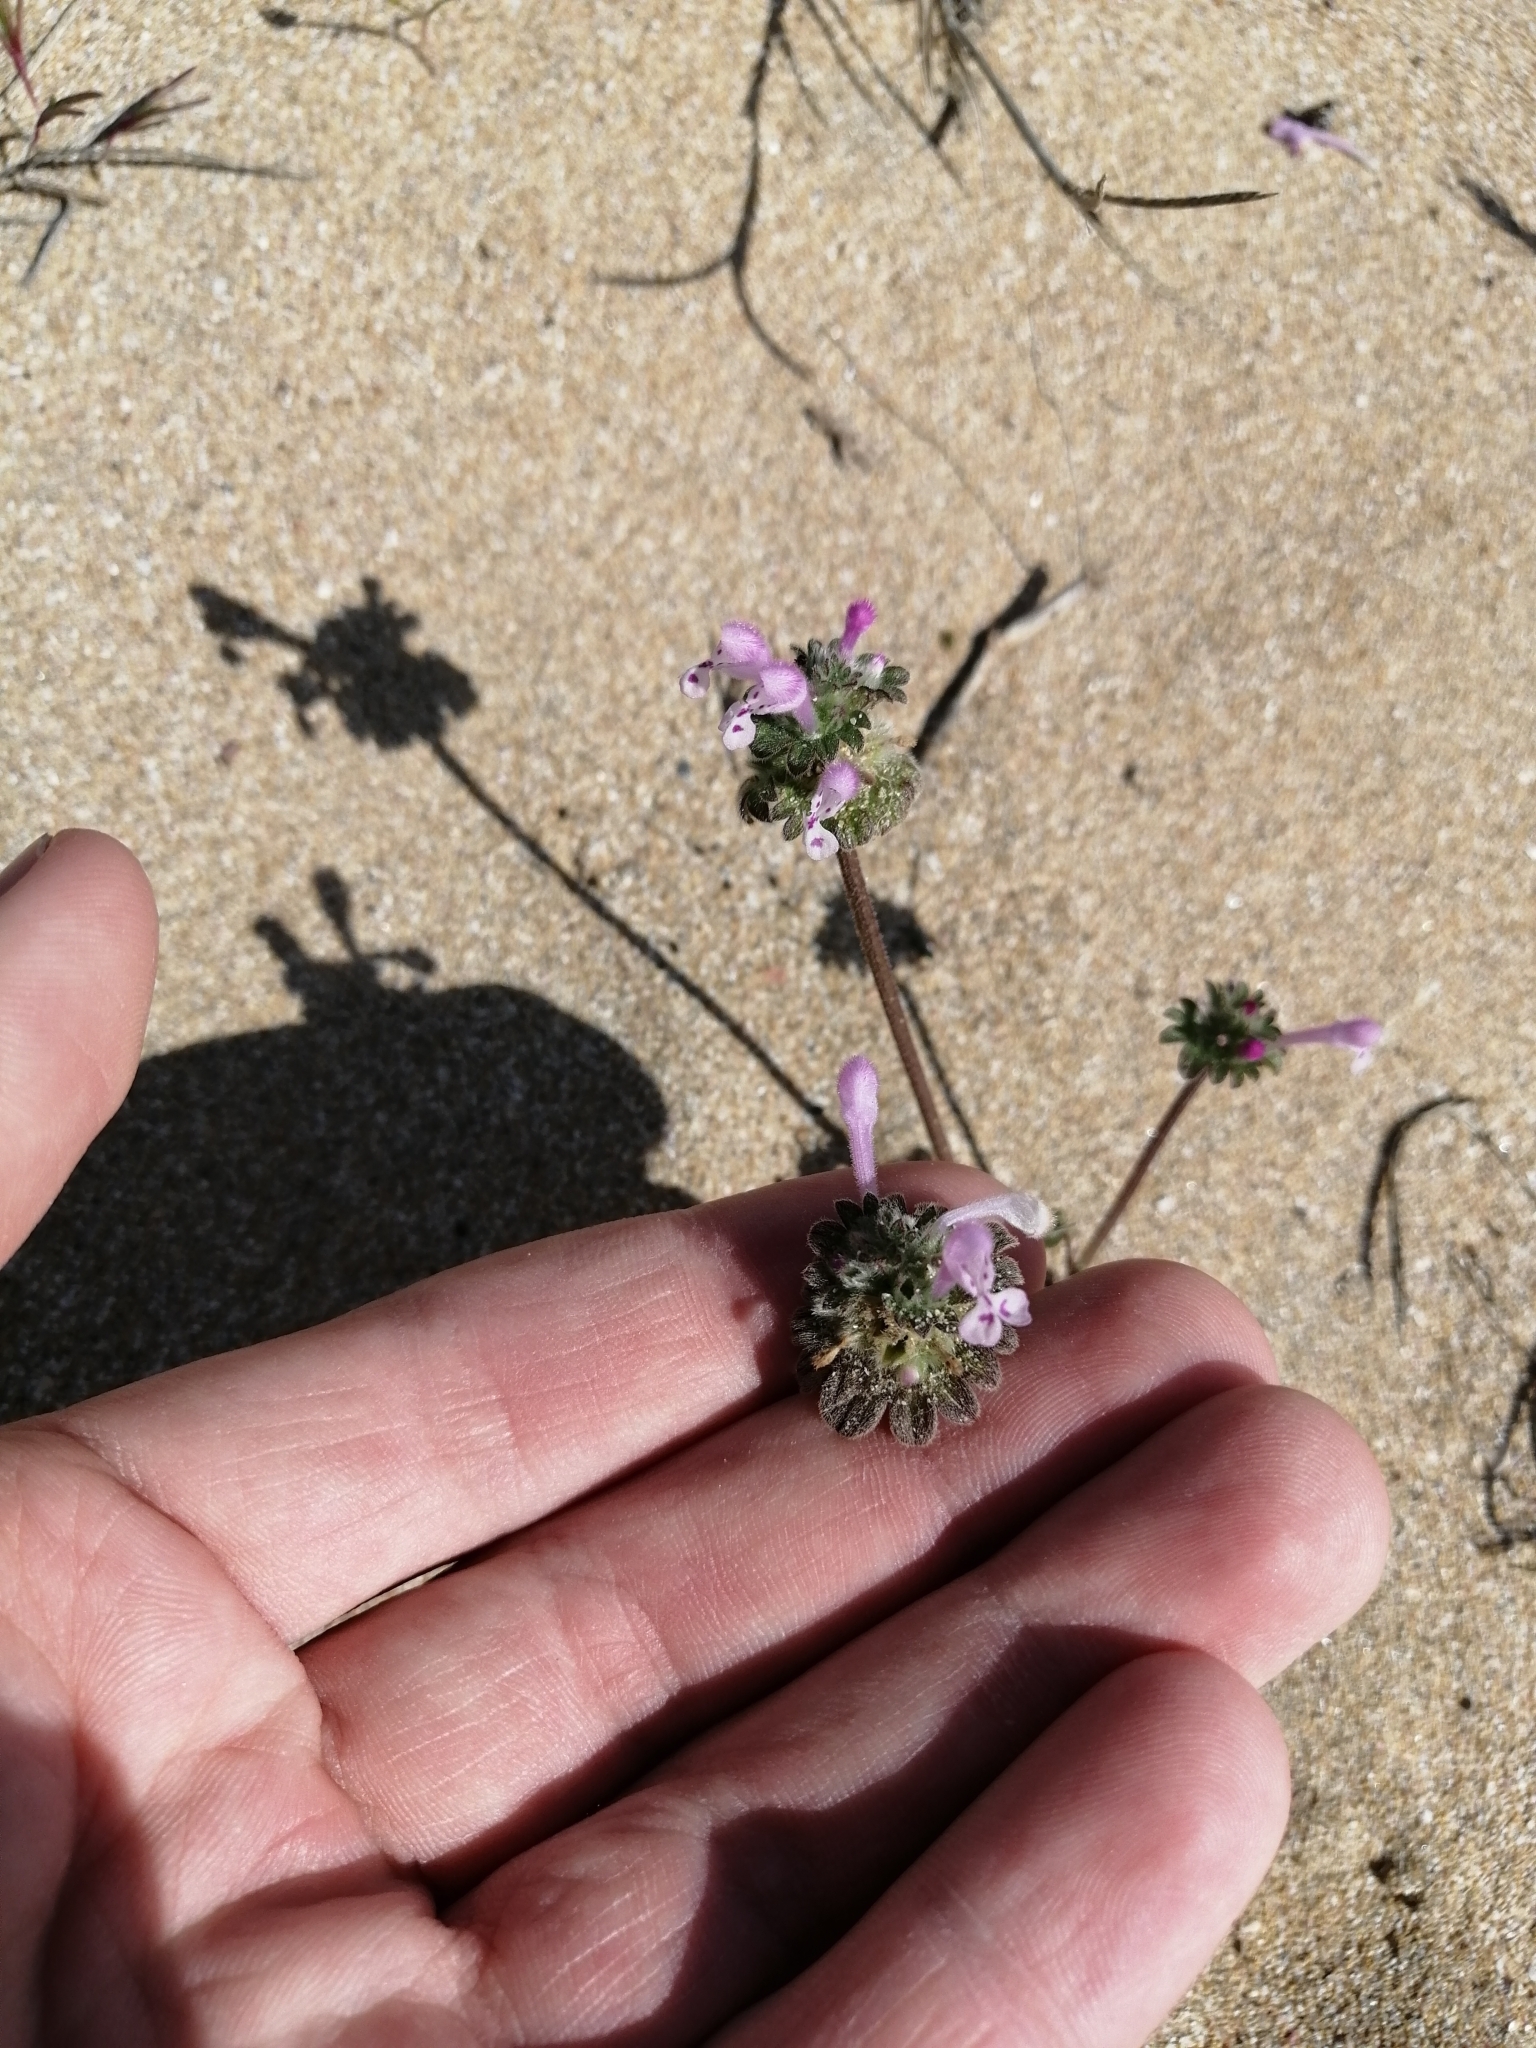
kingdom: Plantae
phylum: Tracheophyta
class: Magnoliopsida
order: Lamiales
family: Lamiaceae
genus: Lamium
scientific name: Lamium amplexicaule
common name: Henbit dead-nettle
